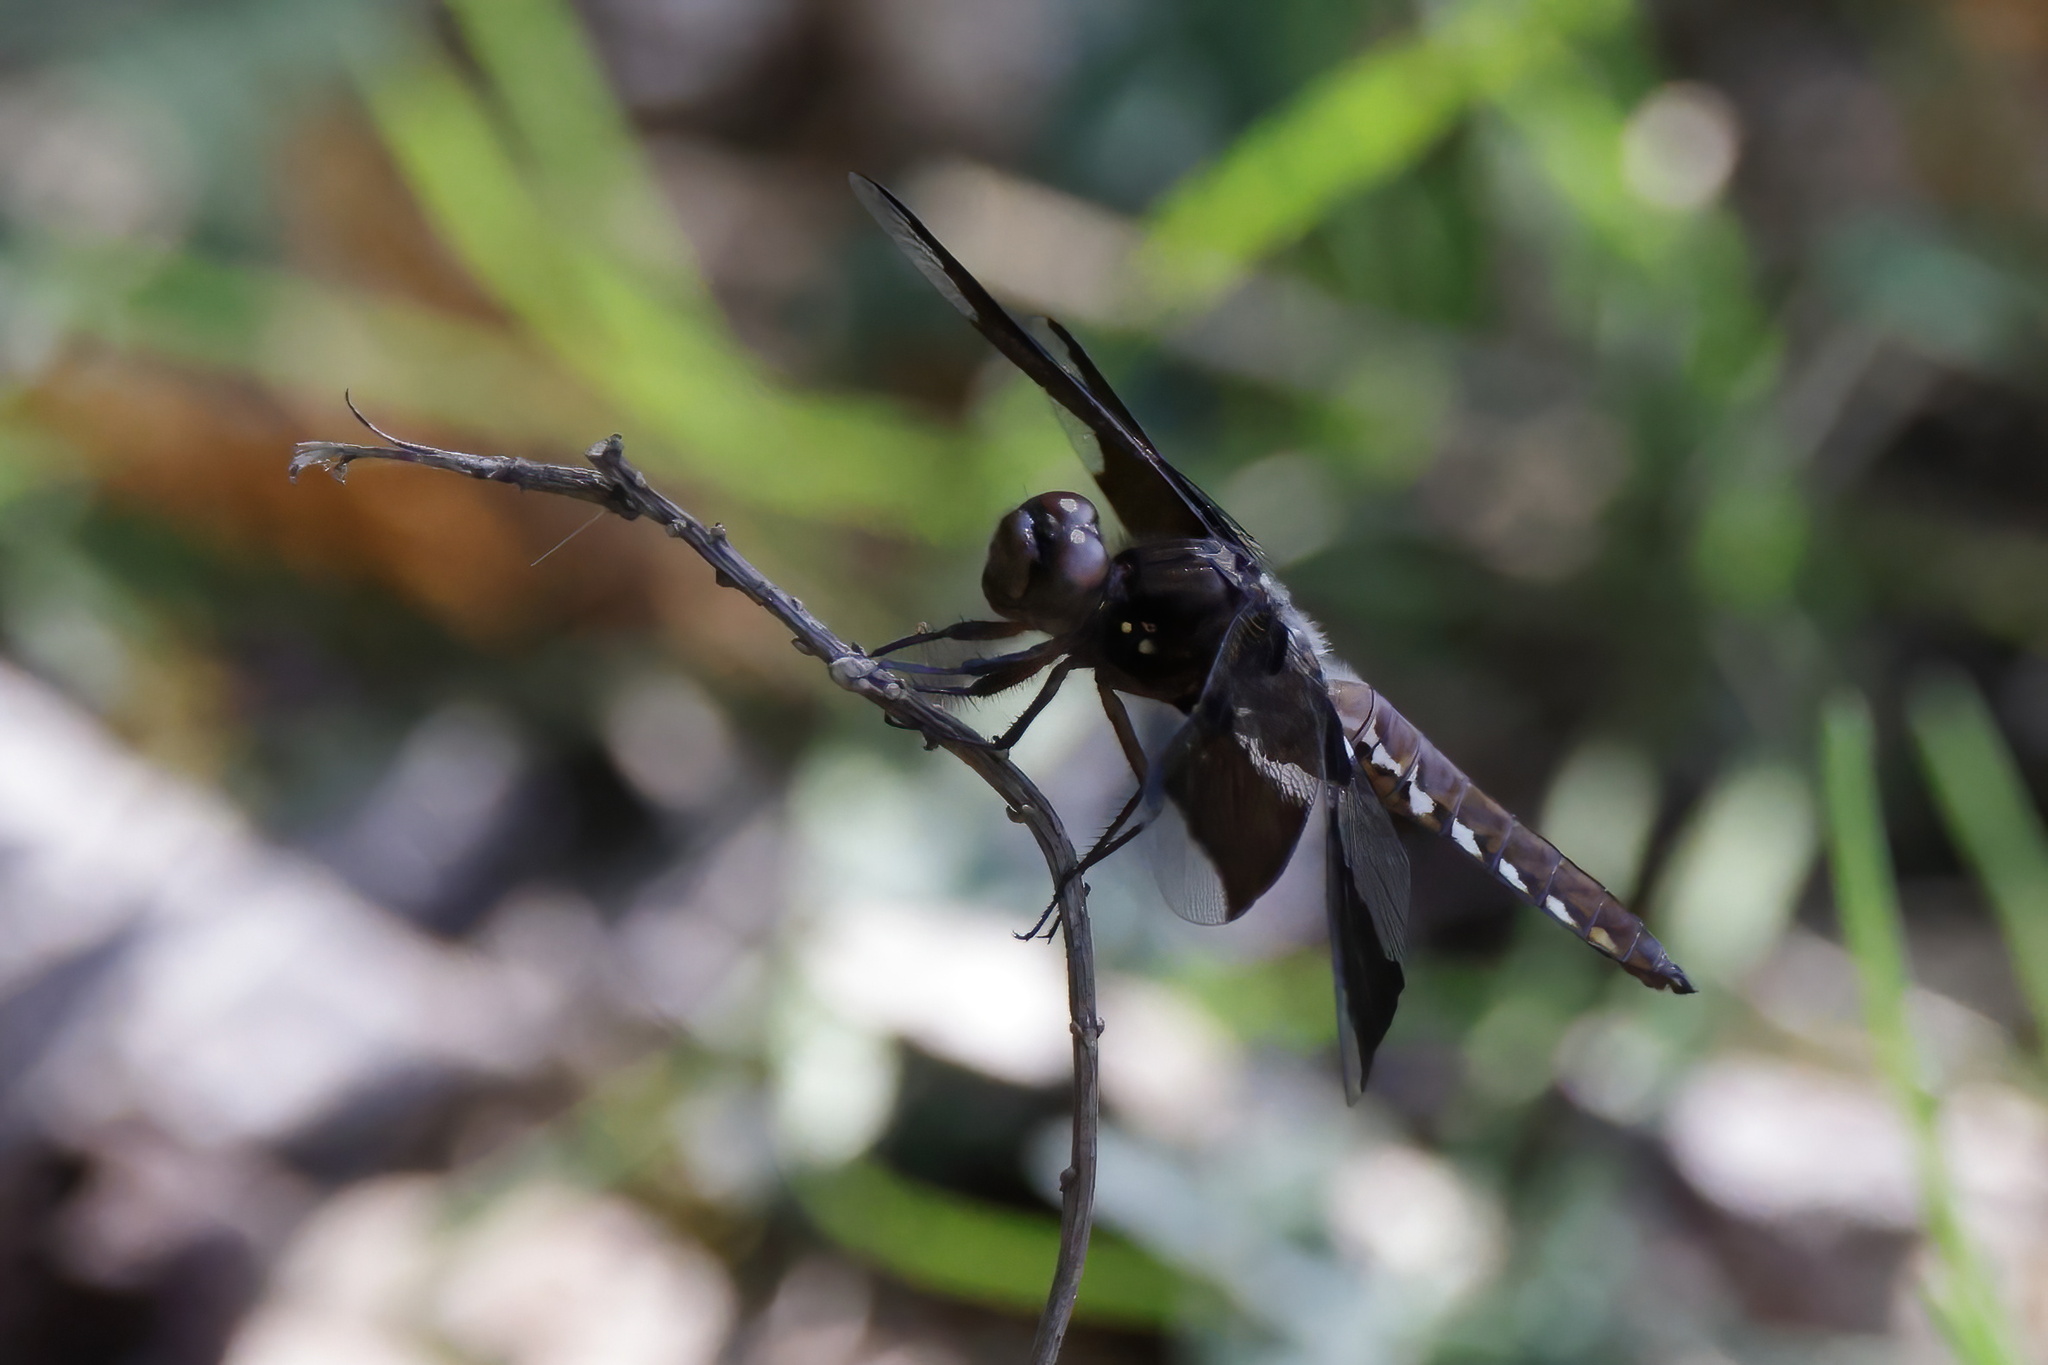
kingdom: Animalia
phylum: Arthropoda
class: Insecta
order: Odonata
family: Libellulidae
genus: Plathemis
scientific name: Plathemis lydia
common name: Common whitetail
